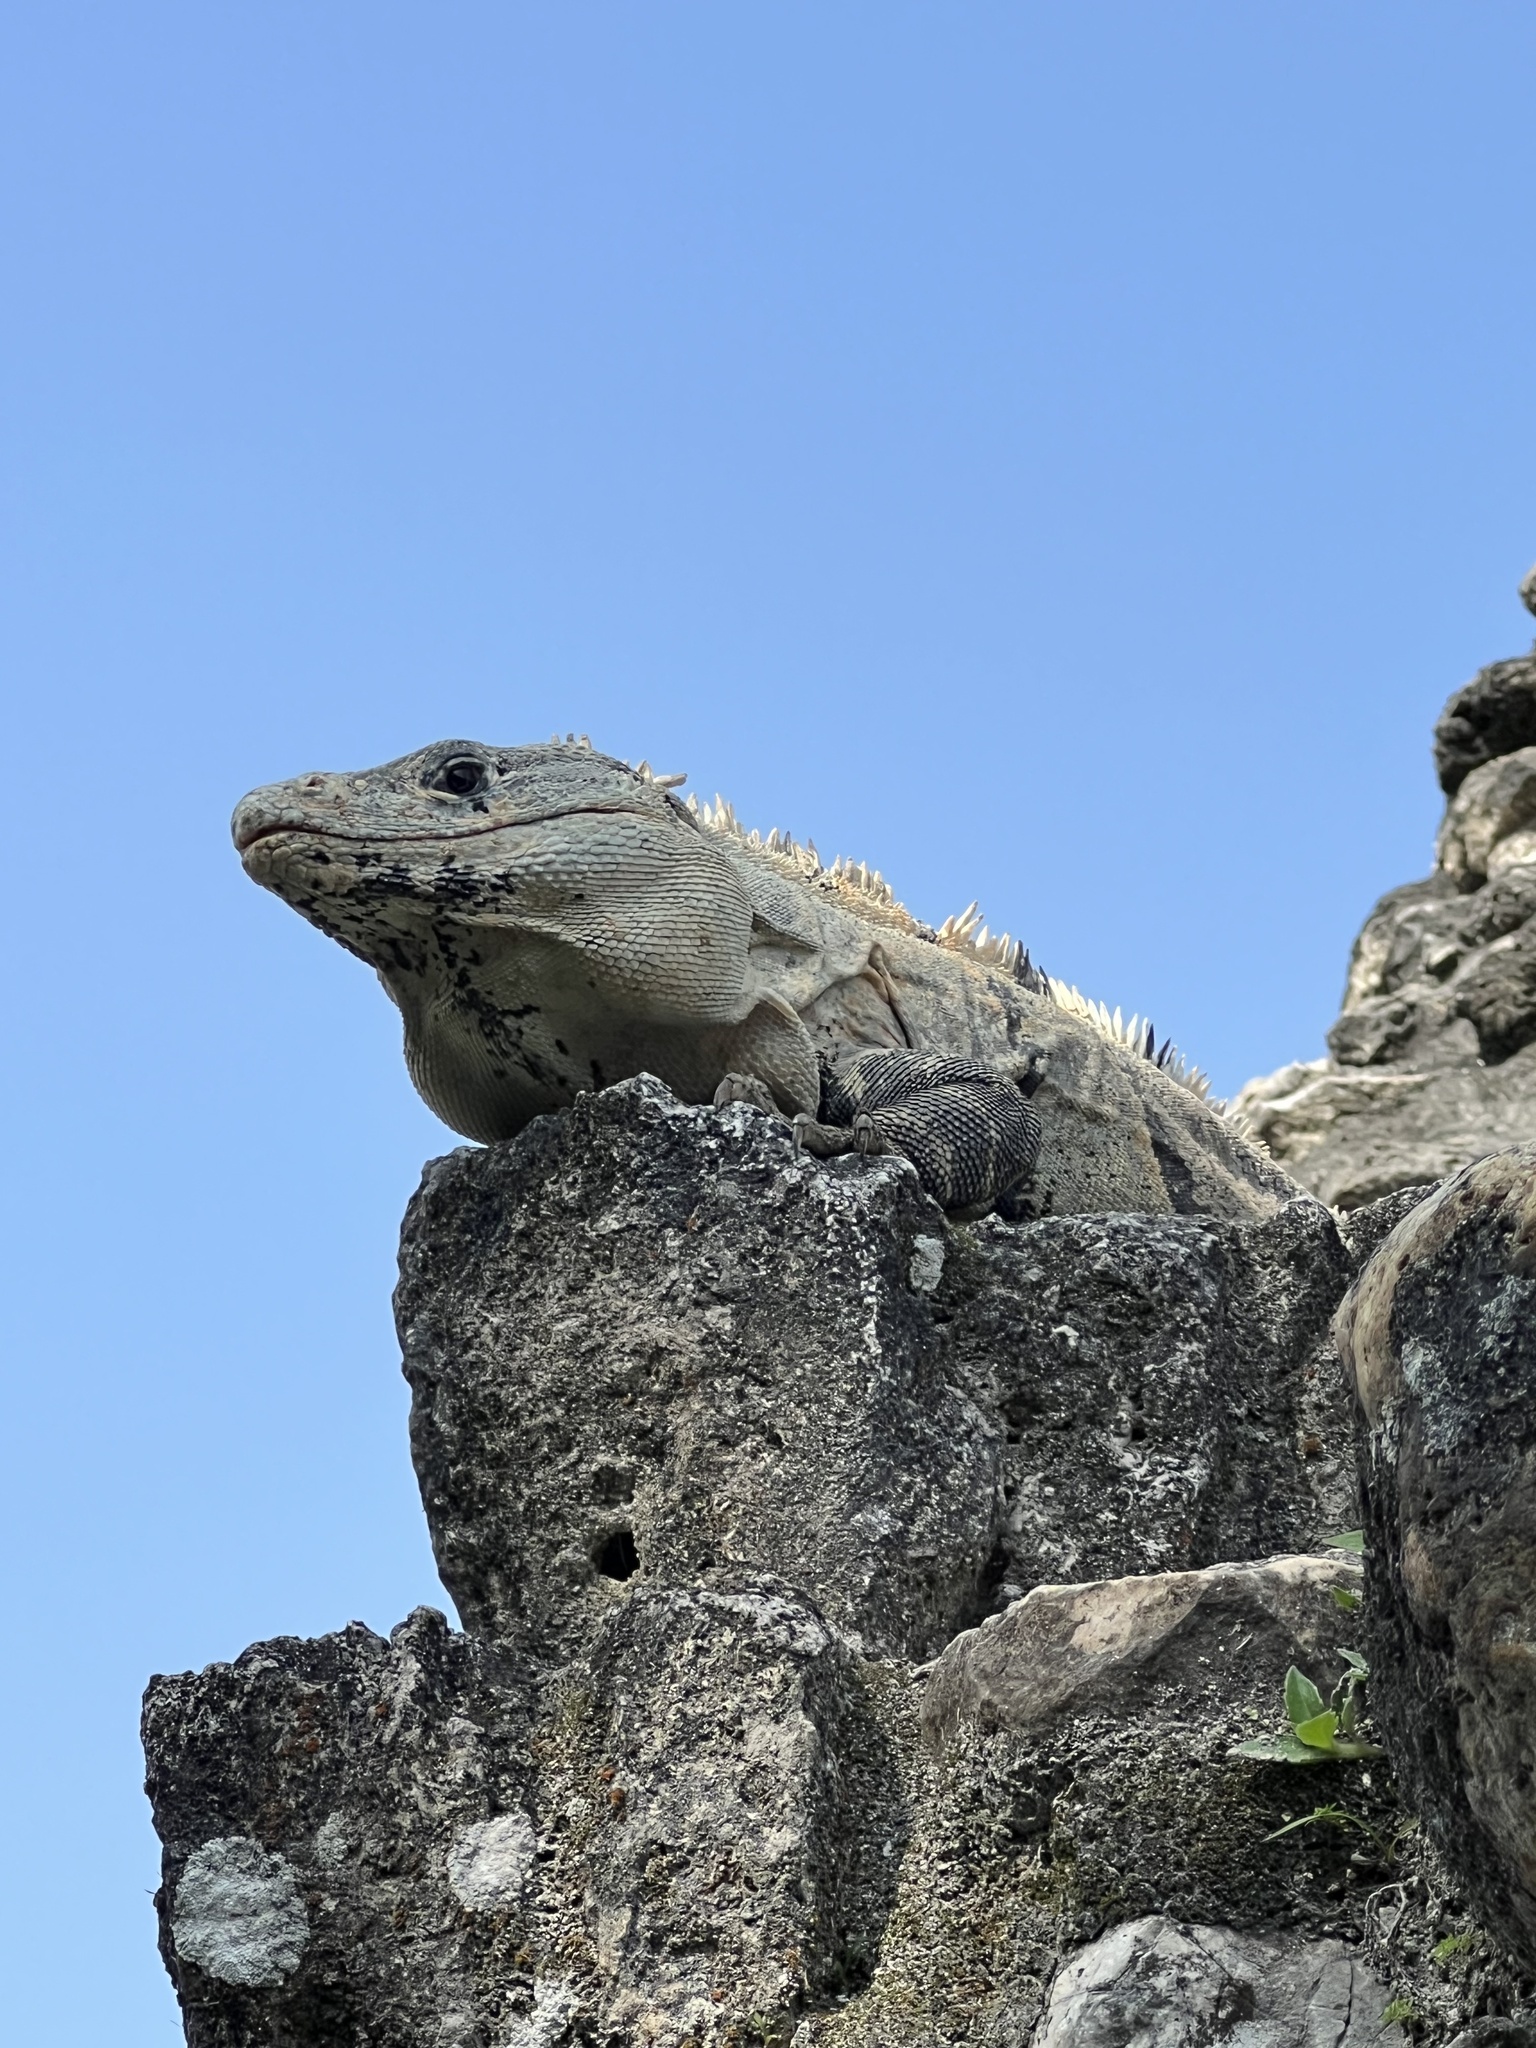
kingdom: Animalia
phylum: Chordata
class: Squamata
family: Iguanidae
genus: Ctenosaura
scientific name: Ctenosaura similis
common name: Black spiny-tailed iguana
